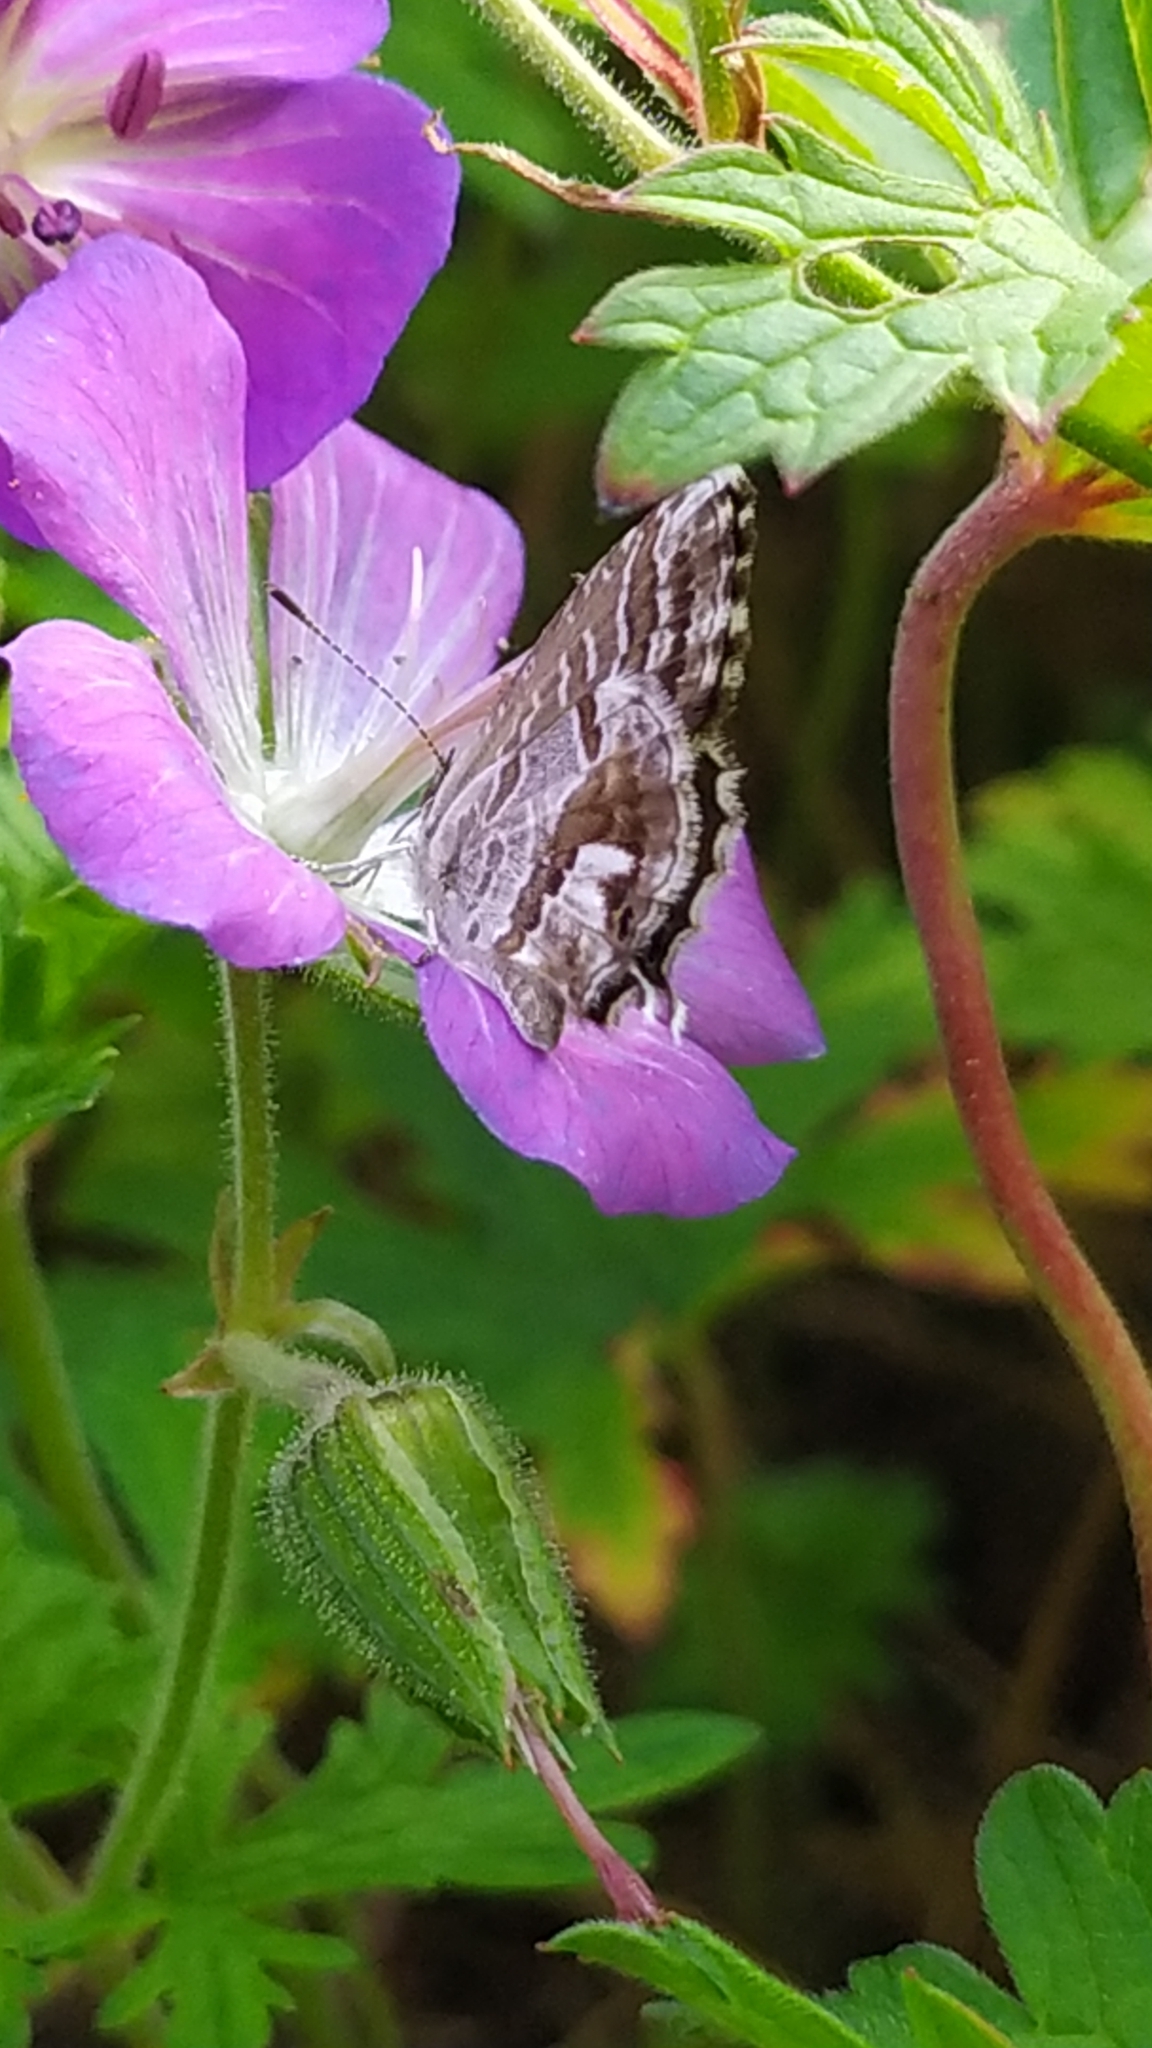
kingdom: Animalia
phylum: Arthropoda
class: Insecta
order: Lepidoptera
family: Lycaenidae
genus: Cacyreus
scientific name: Cacyreus marshalli
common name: Geranium bronze
